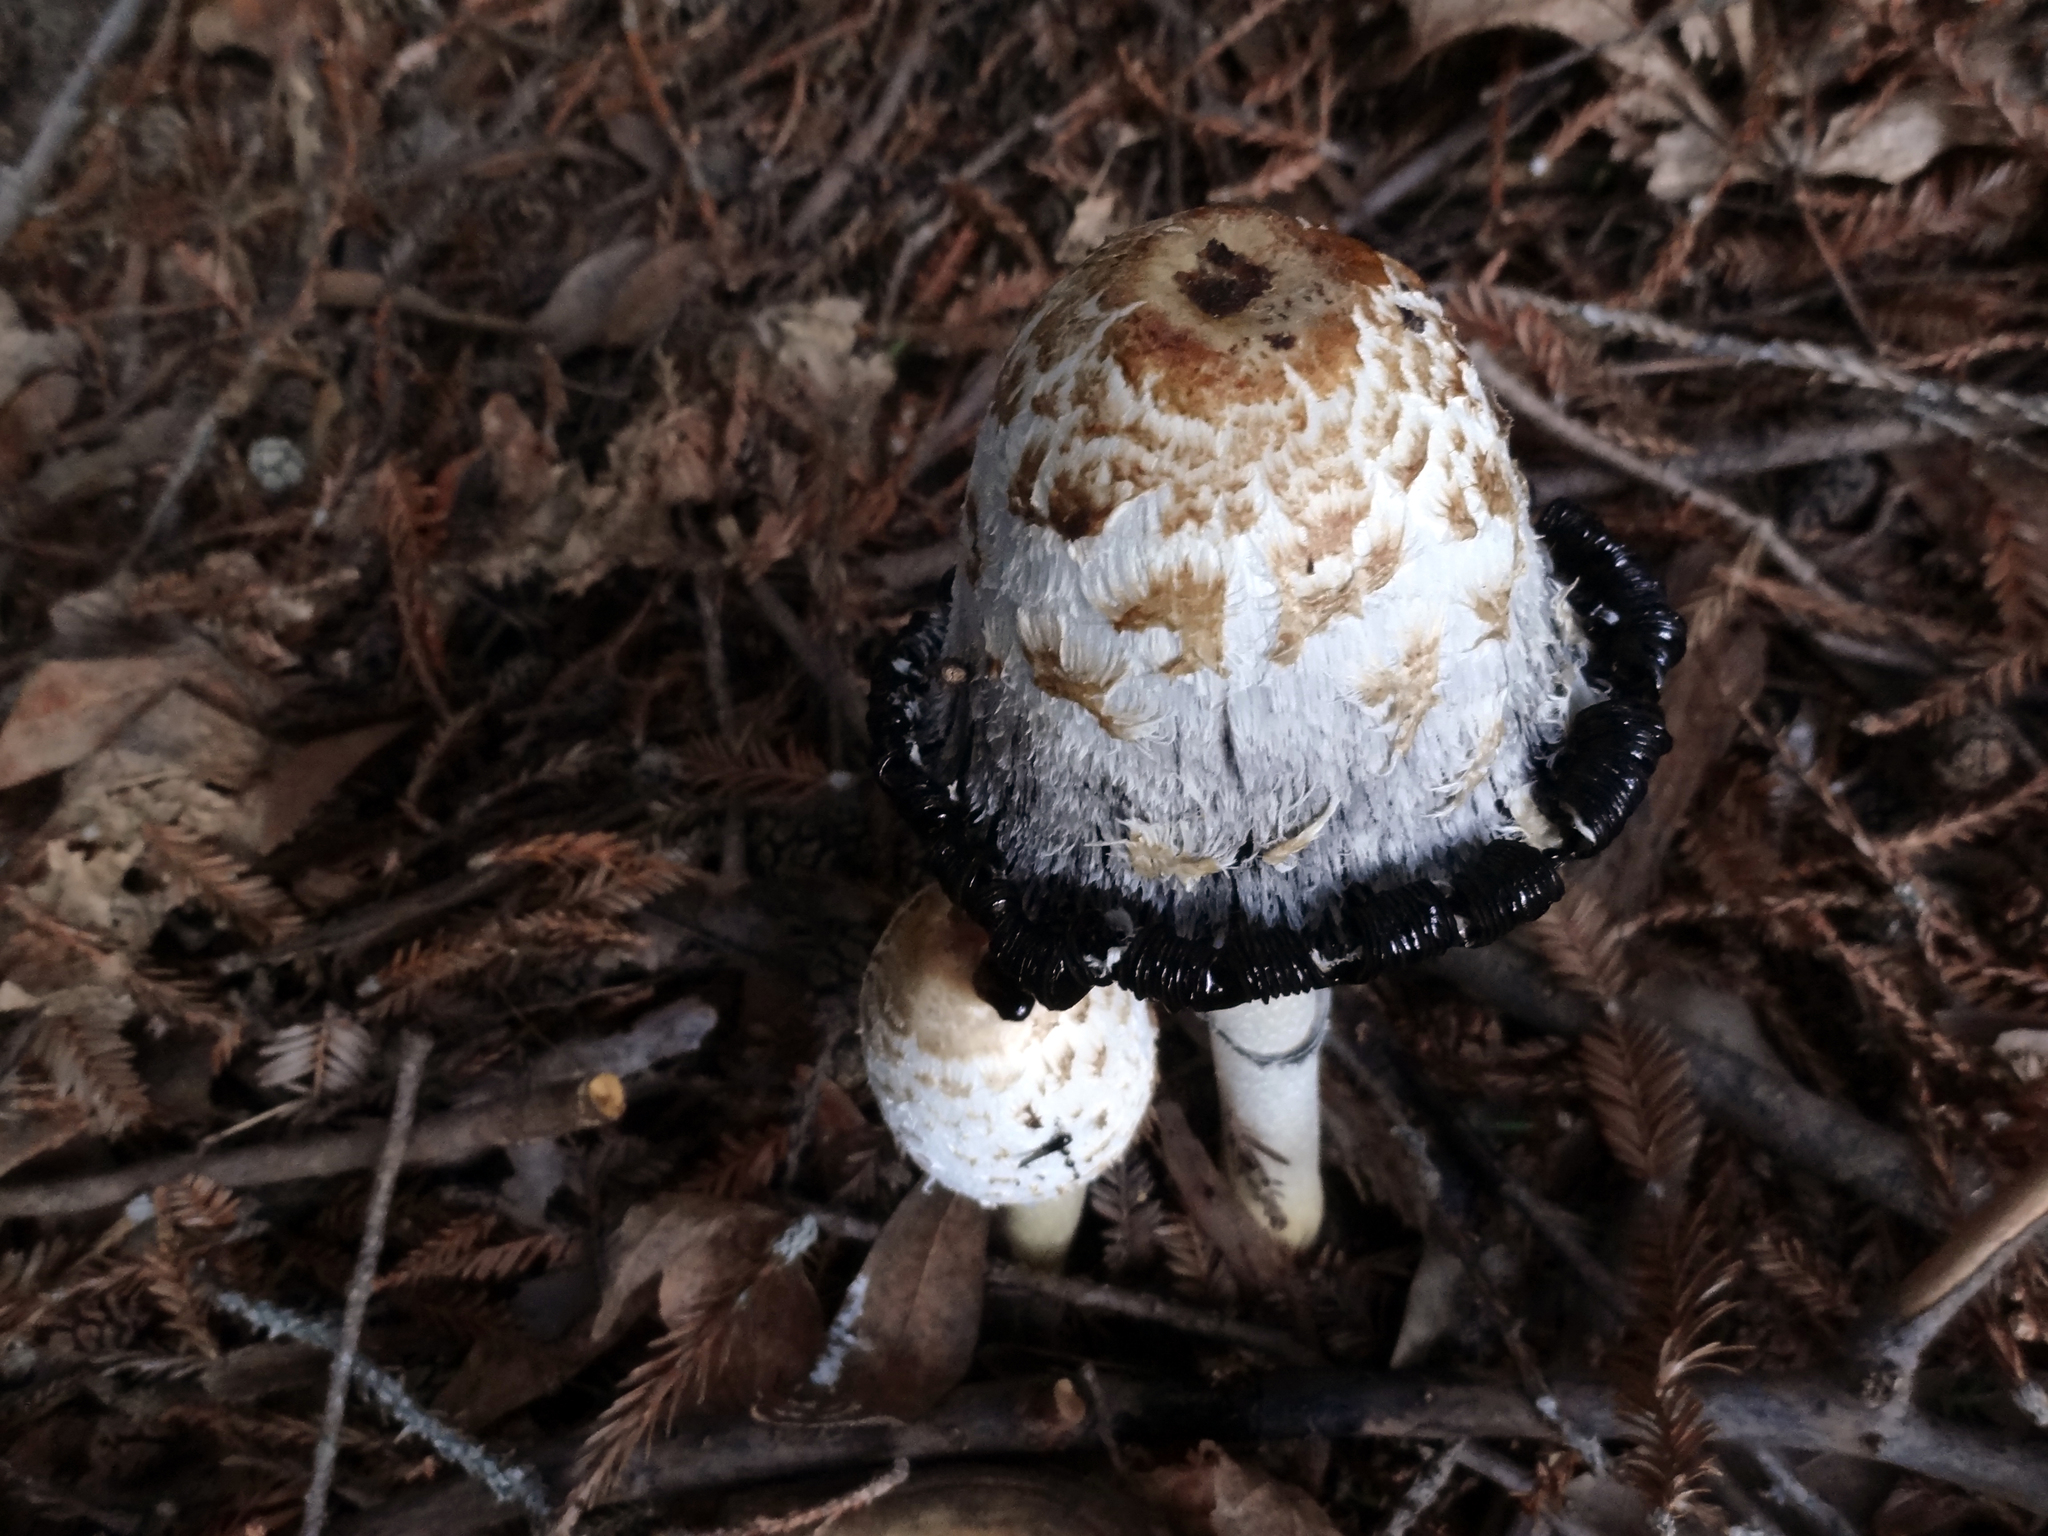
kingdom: Fungi
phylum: Basidiomycota
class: Agaricomycetes
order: Agaricales
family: Agaricaceae
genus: Coprinus
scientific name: Coprinus comatus
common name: Lawyer's wig
